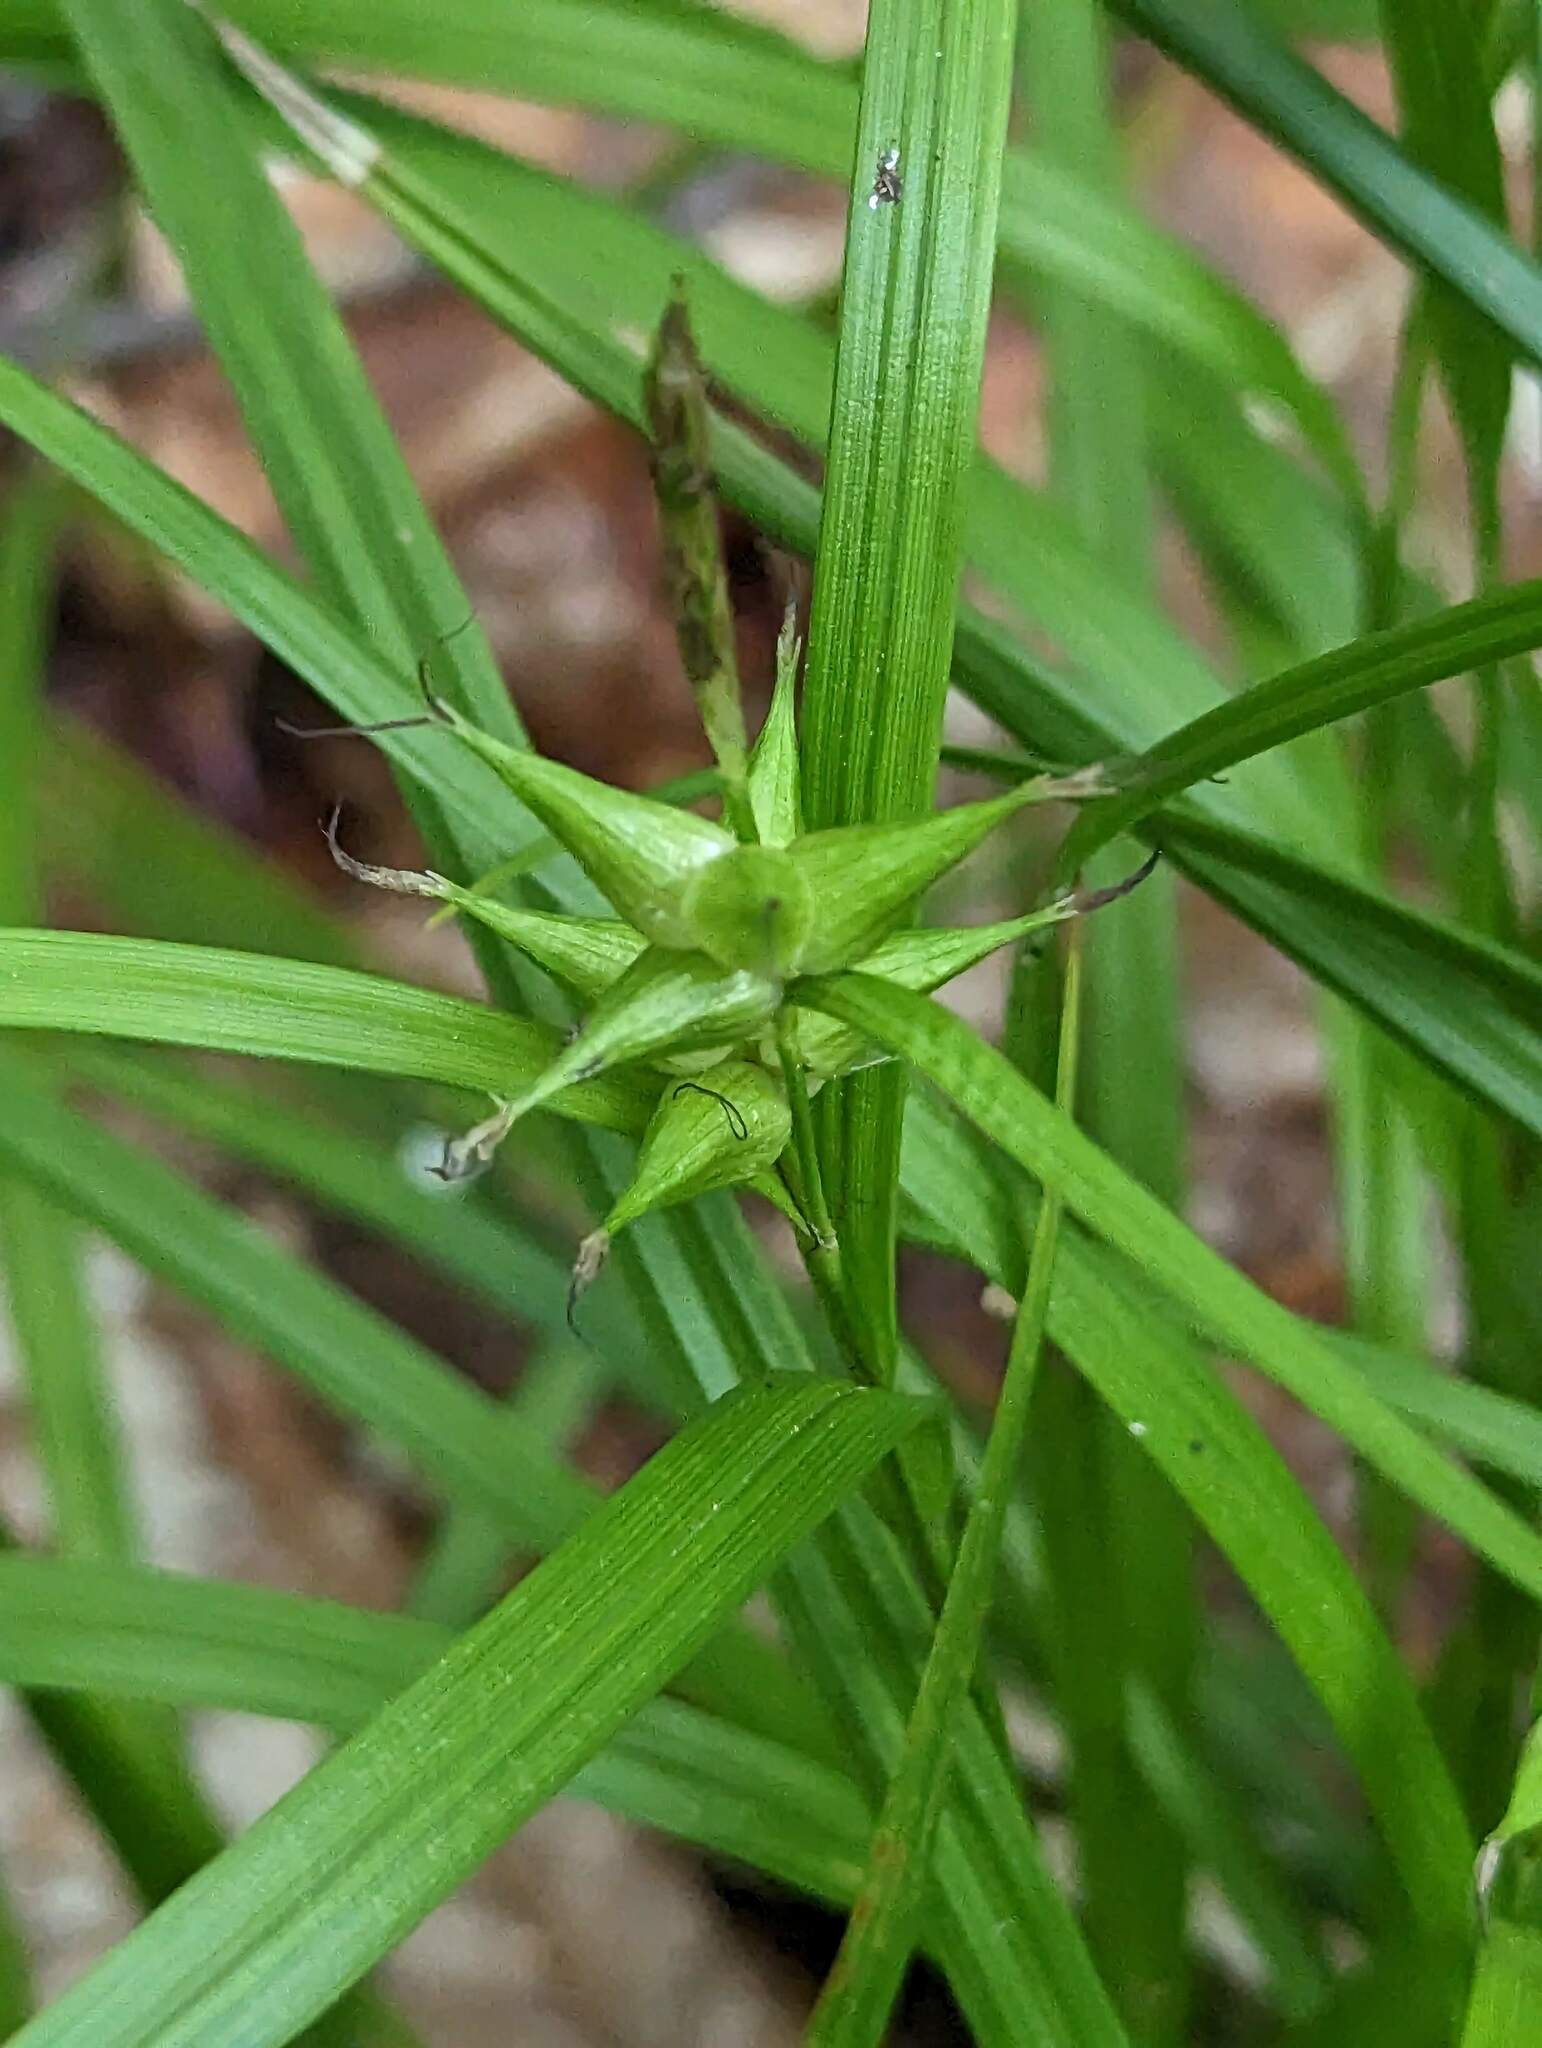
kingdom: Plantae
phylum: Tracheophyta
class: Liliopsida
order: Poales
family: Cyperaceae
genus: Carex
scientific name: Carex intumescens
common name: Greater bladder sedge
